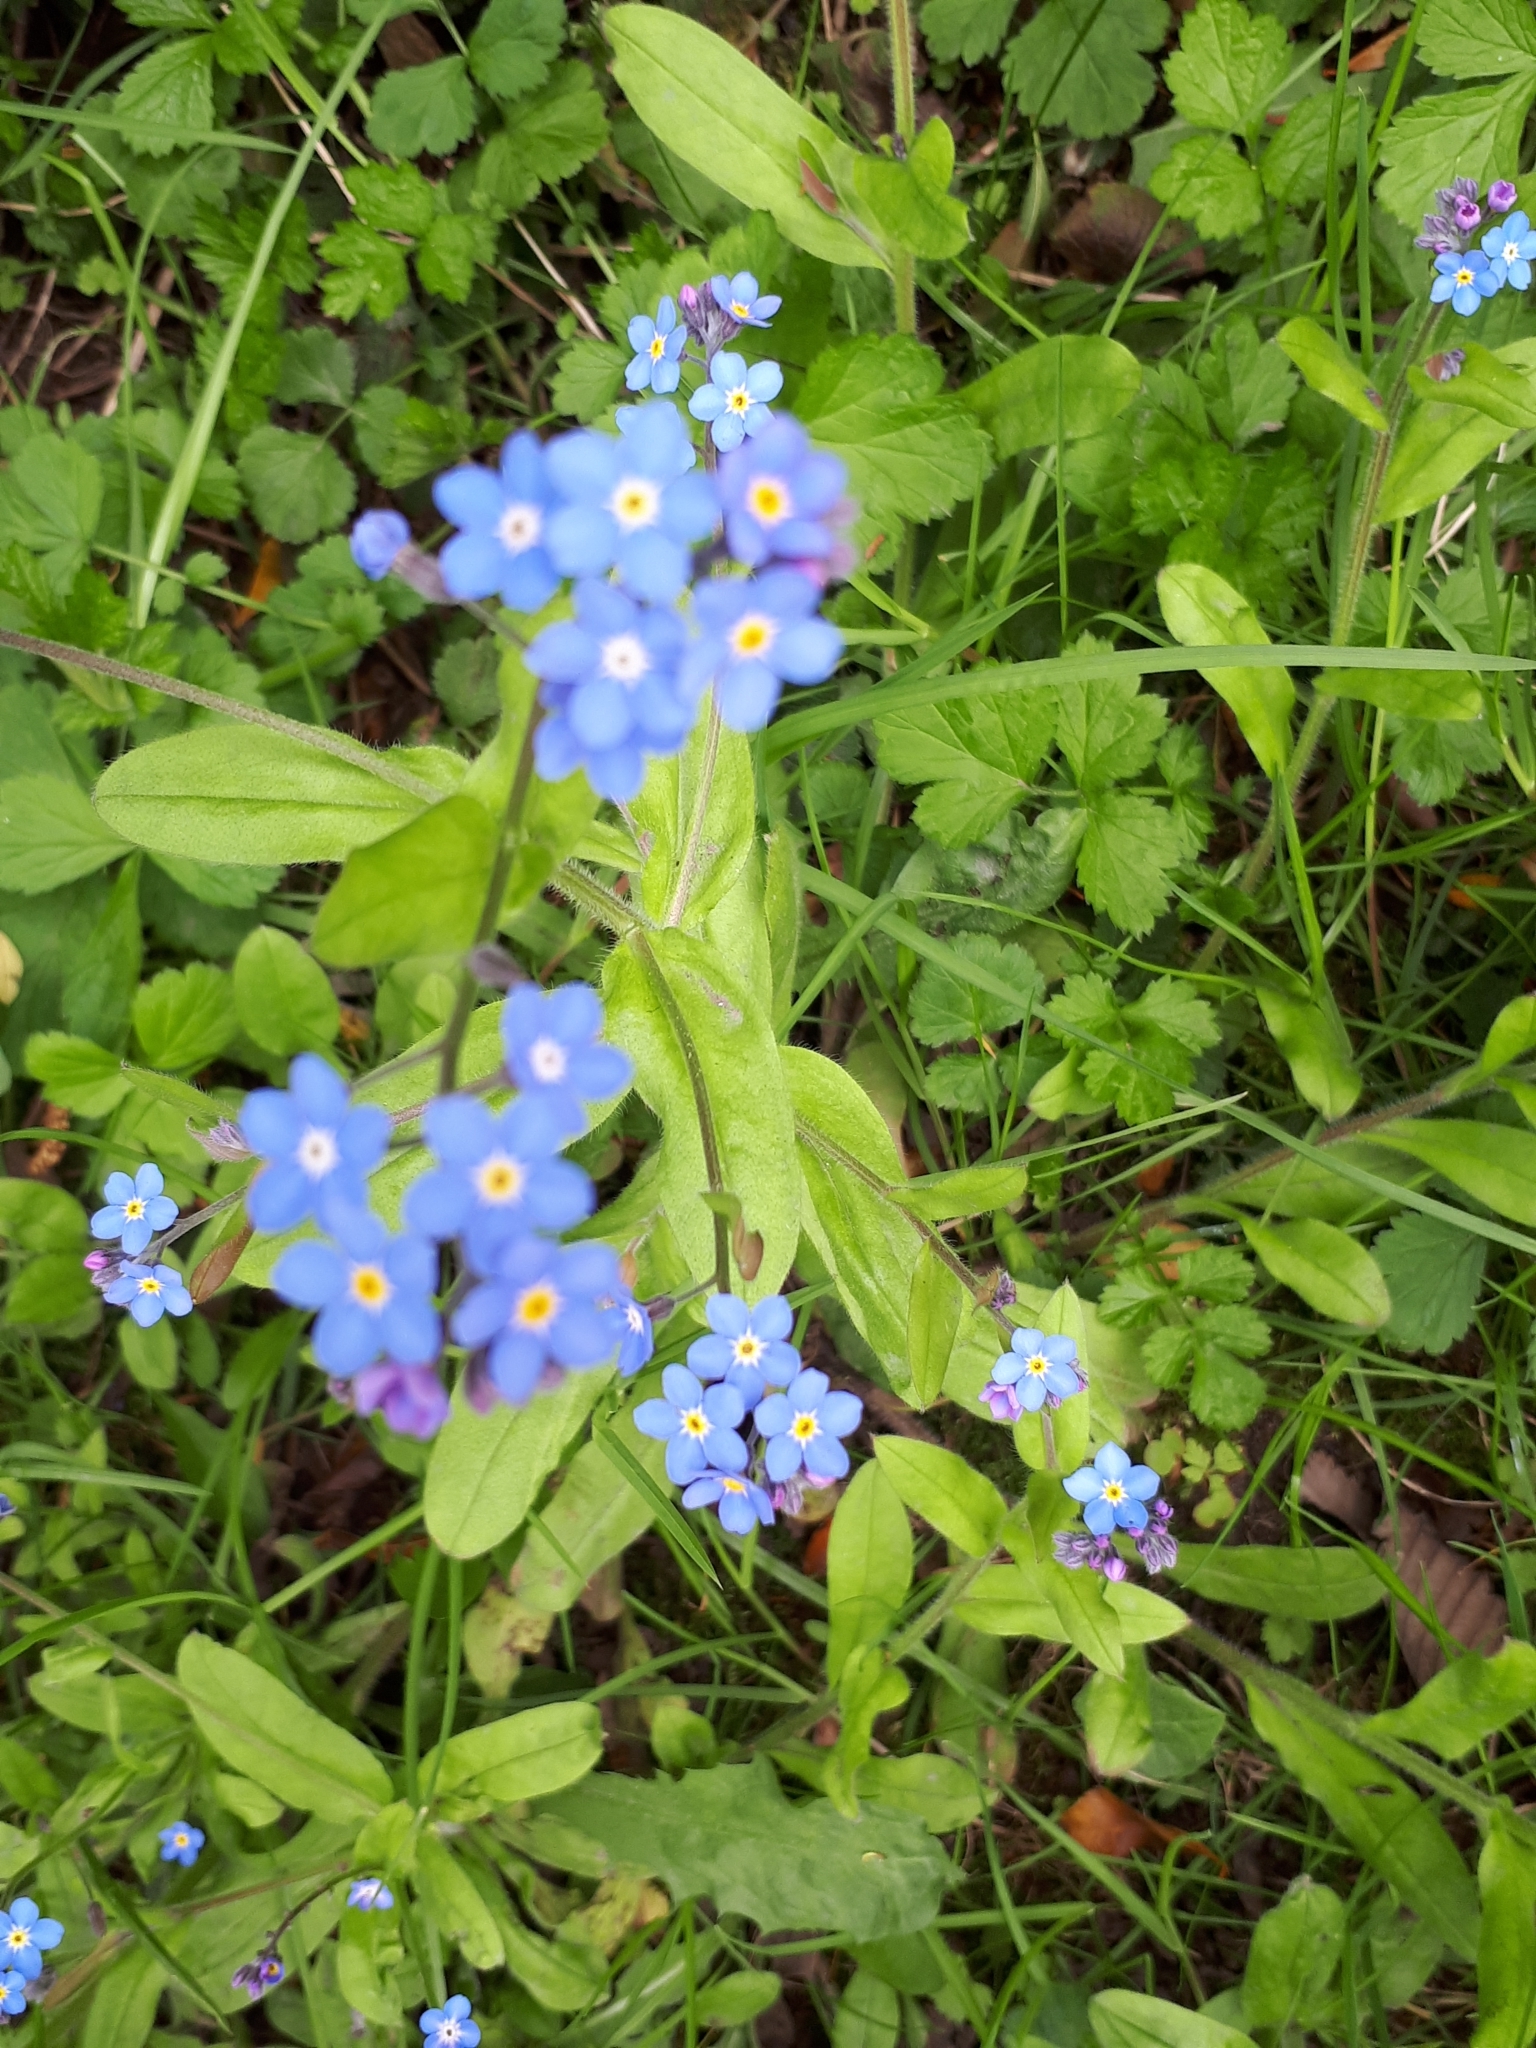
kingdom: Plantae
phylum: Tracheophyta
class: Magnoliopsida
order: Boraginales
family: Boraginaceae
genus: Myosotis
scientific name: Myosotis sylvatica
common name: Wood forget-me-not
